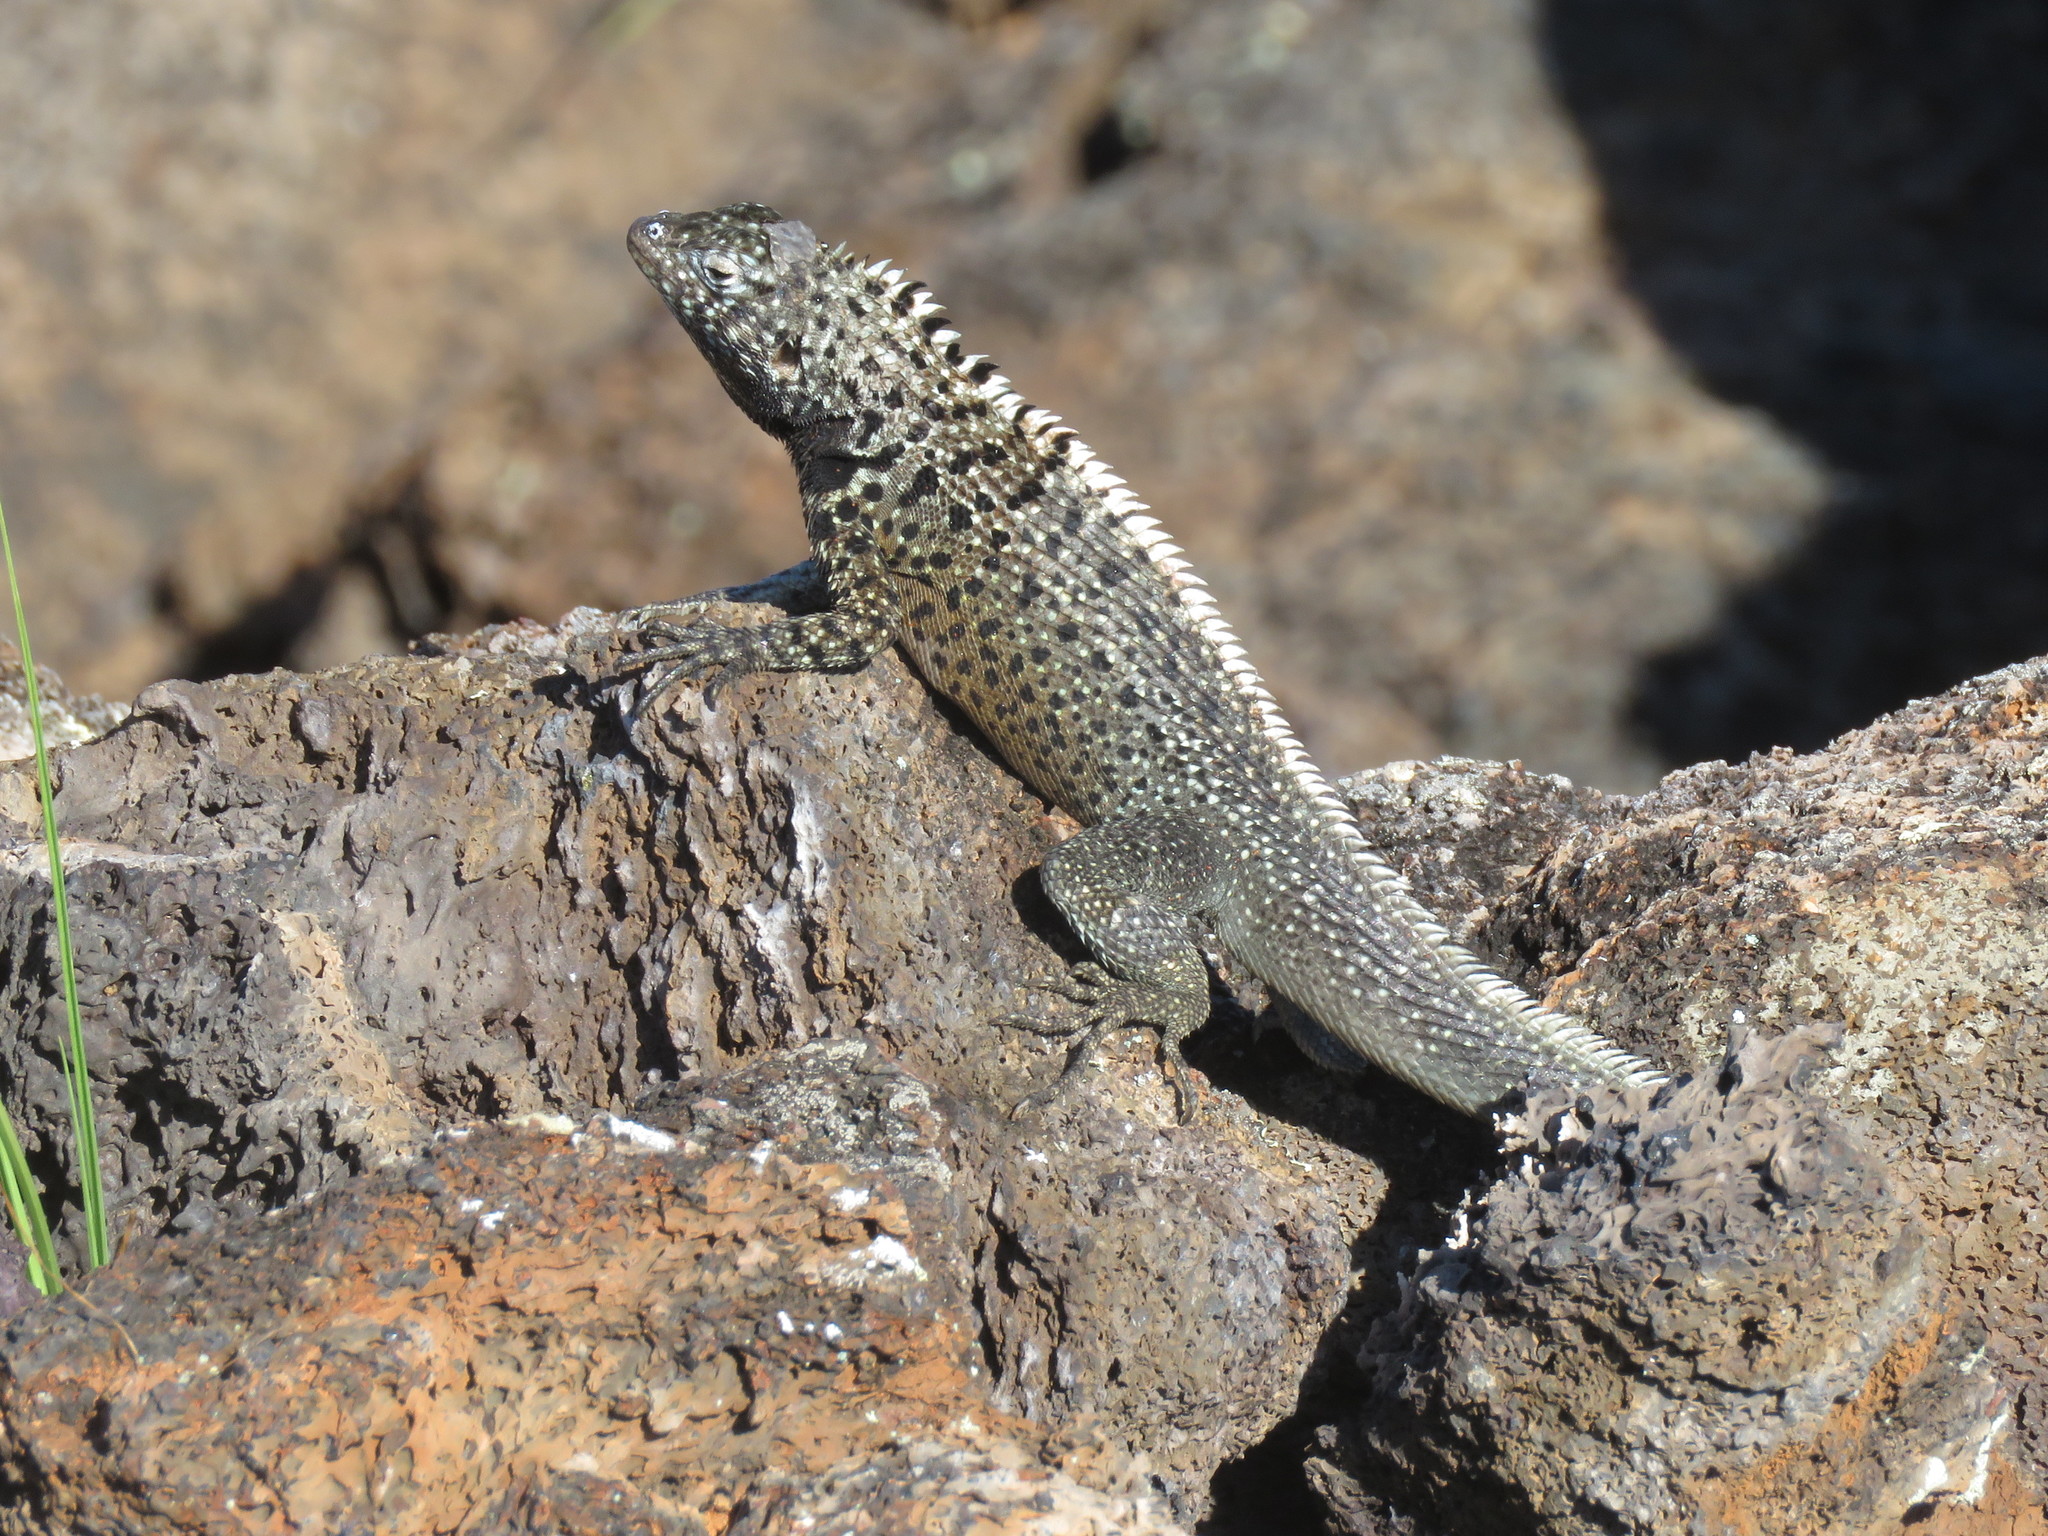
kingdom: Animalia
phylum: Chordata
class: Squamata
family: Tropiduridae
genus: Microlophus
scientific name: Microlophus albemarlensis
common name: Galapagos lava lizard
